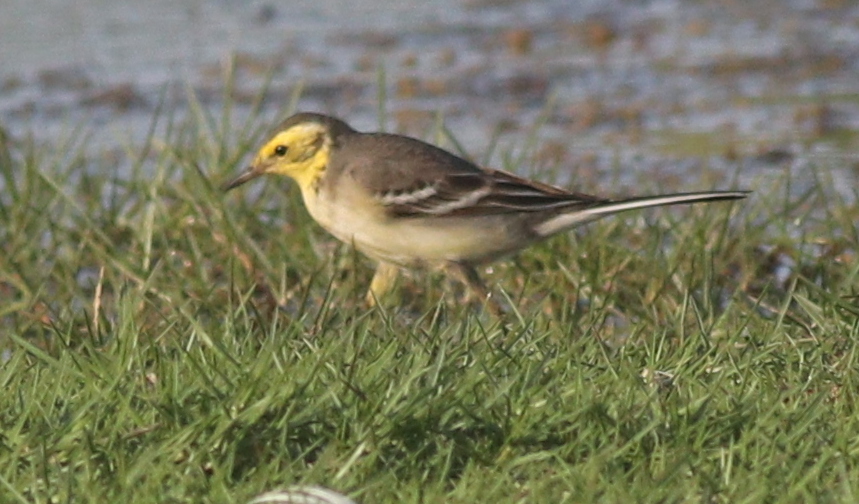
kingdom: Animalia
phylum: Chordata
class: Aves
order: Passeriformes
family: Motacillidae
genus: Motacilla
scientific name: Motacilla citreola
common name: Citrine wagtail
